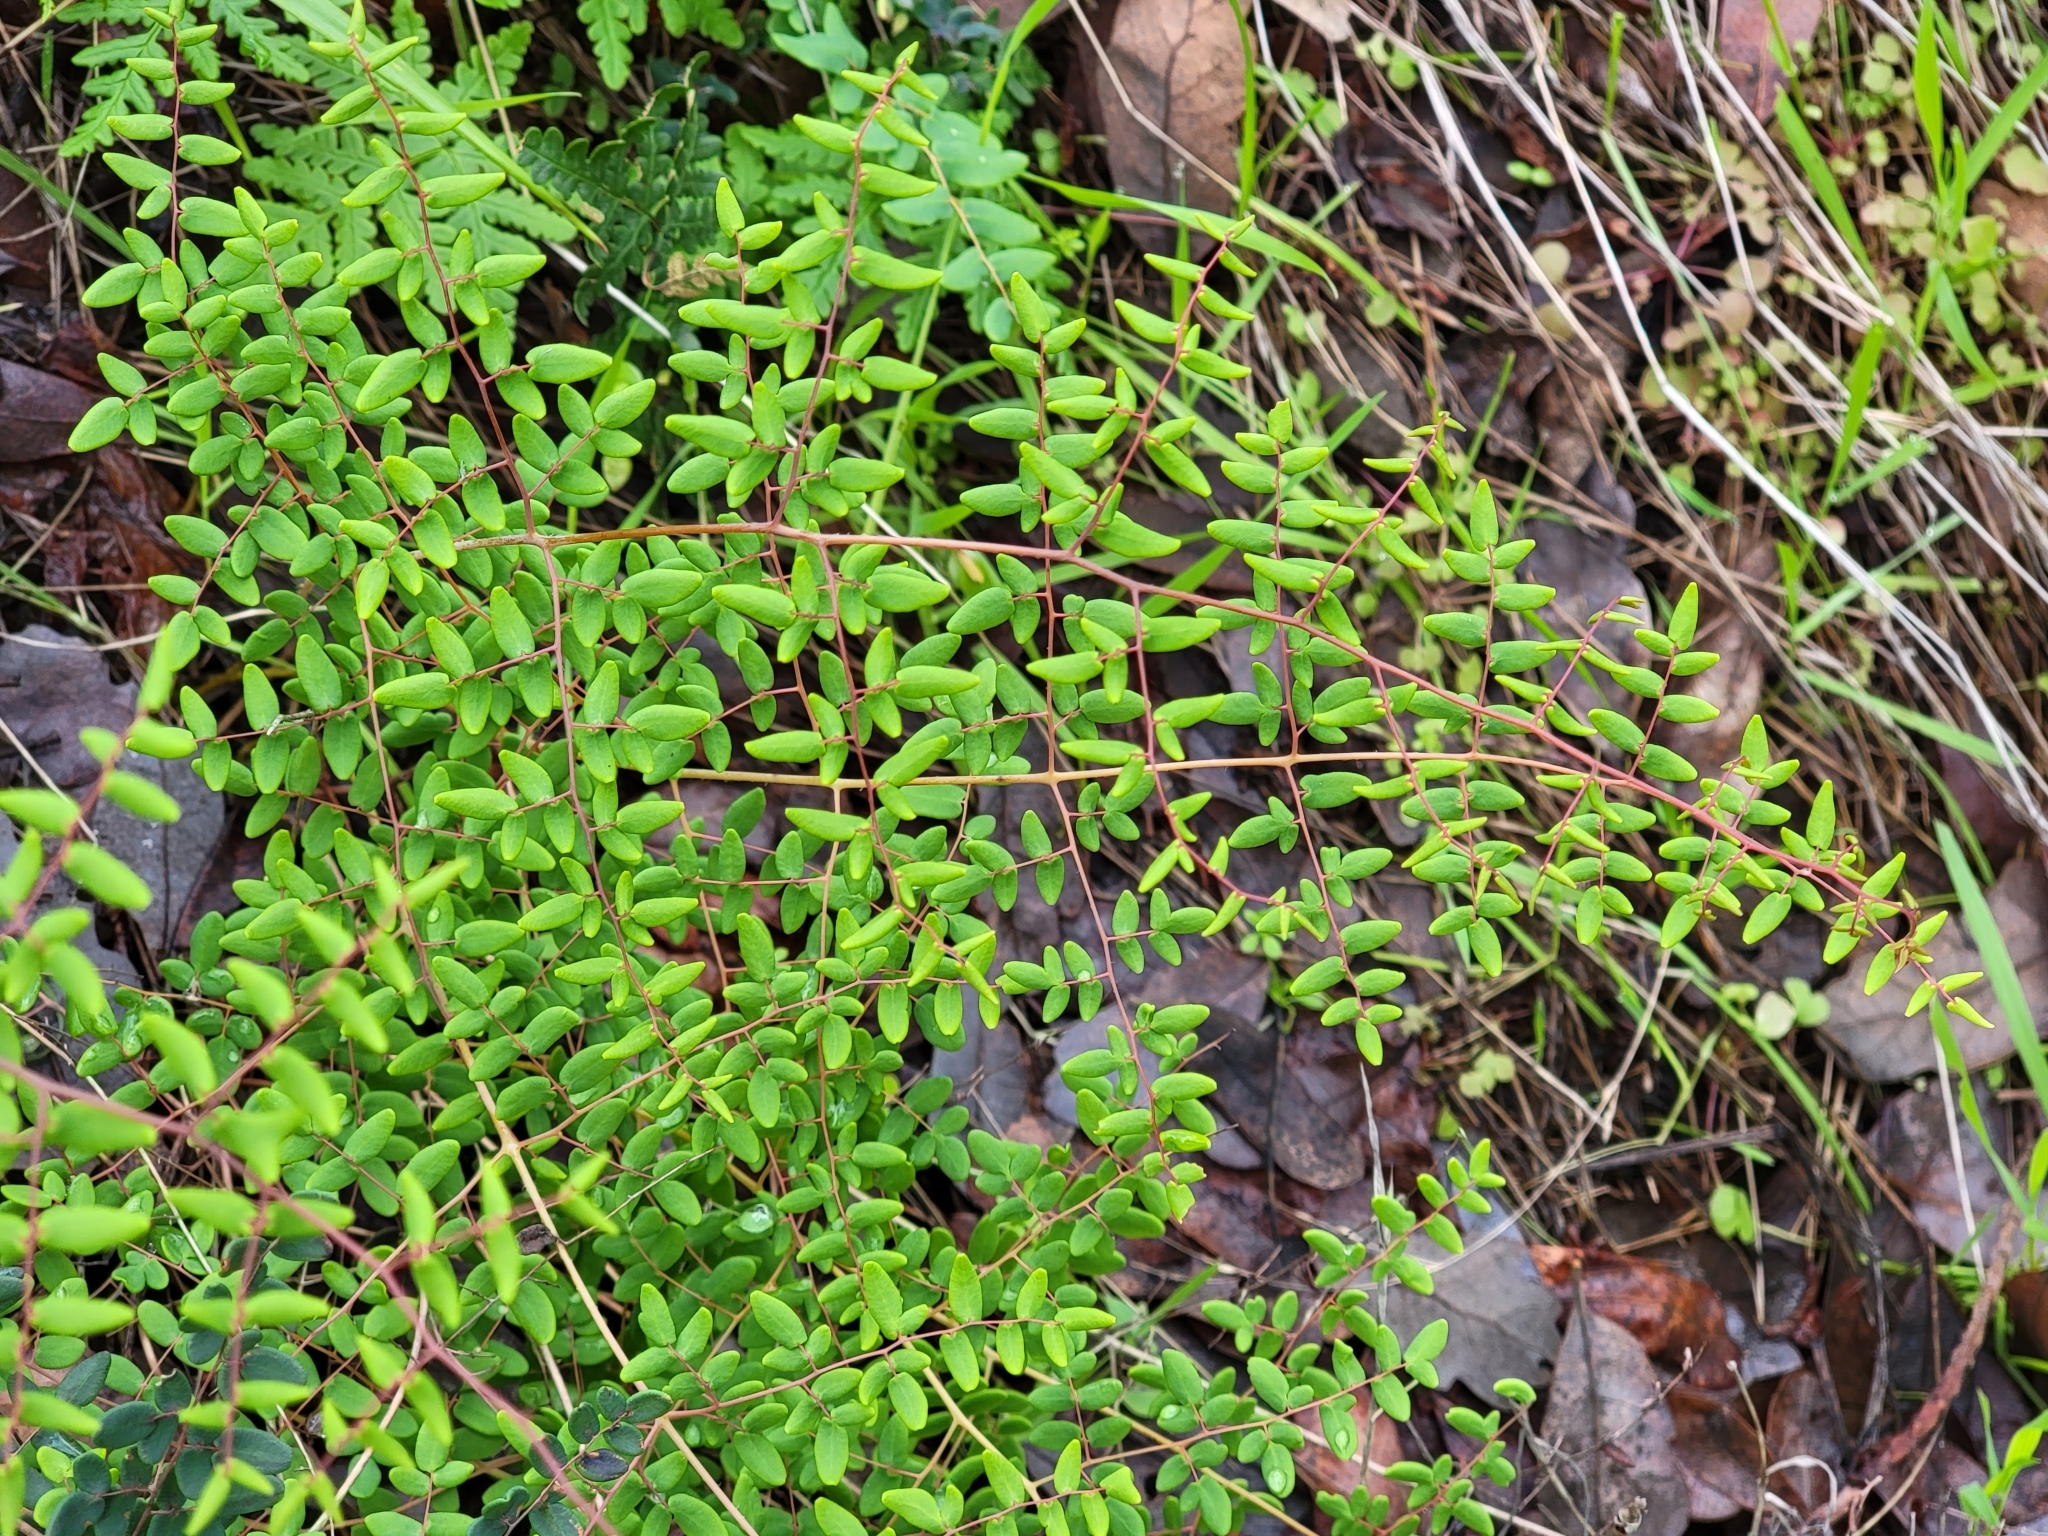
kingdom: Plantae
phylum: Tracheophyta
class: Polypodiopsida
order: Polypodiales
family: Pteridaceae
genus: Pellaea
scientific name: Pellaea andromedifolia
